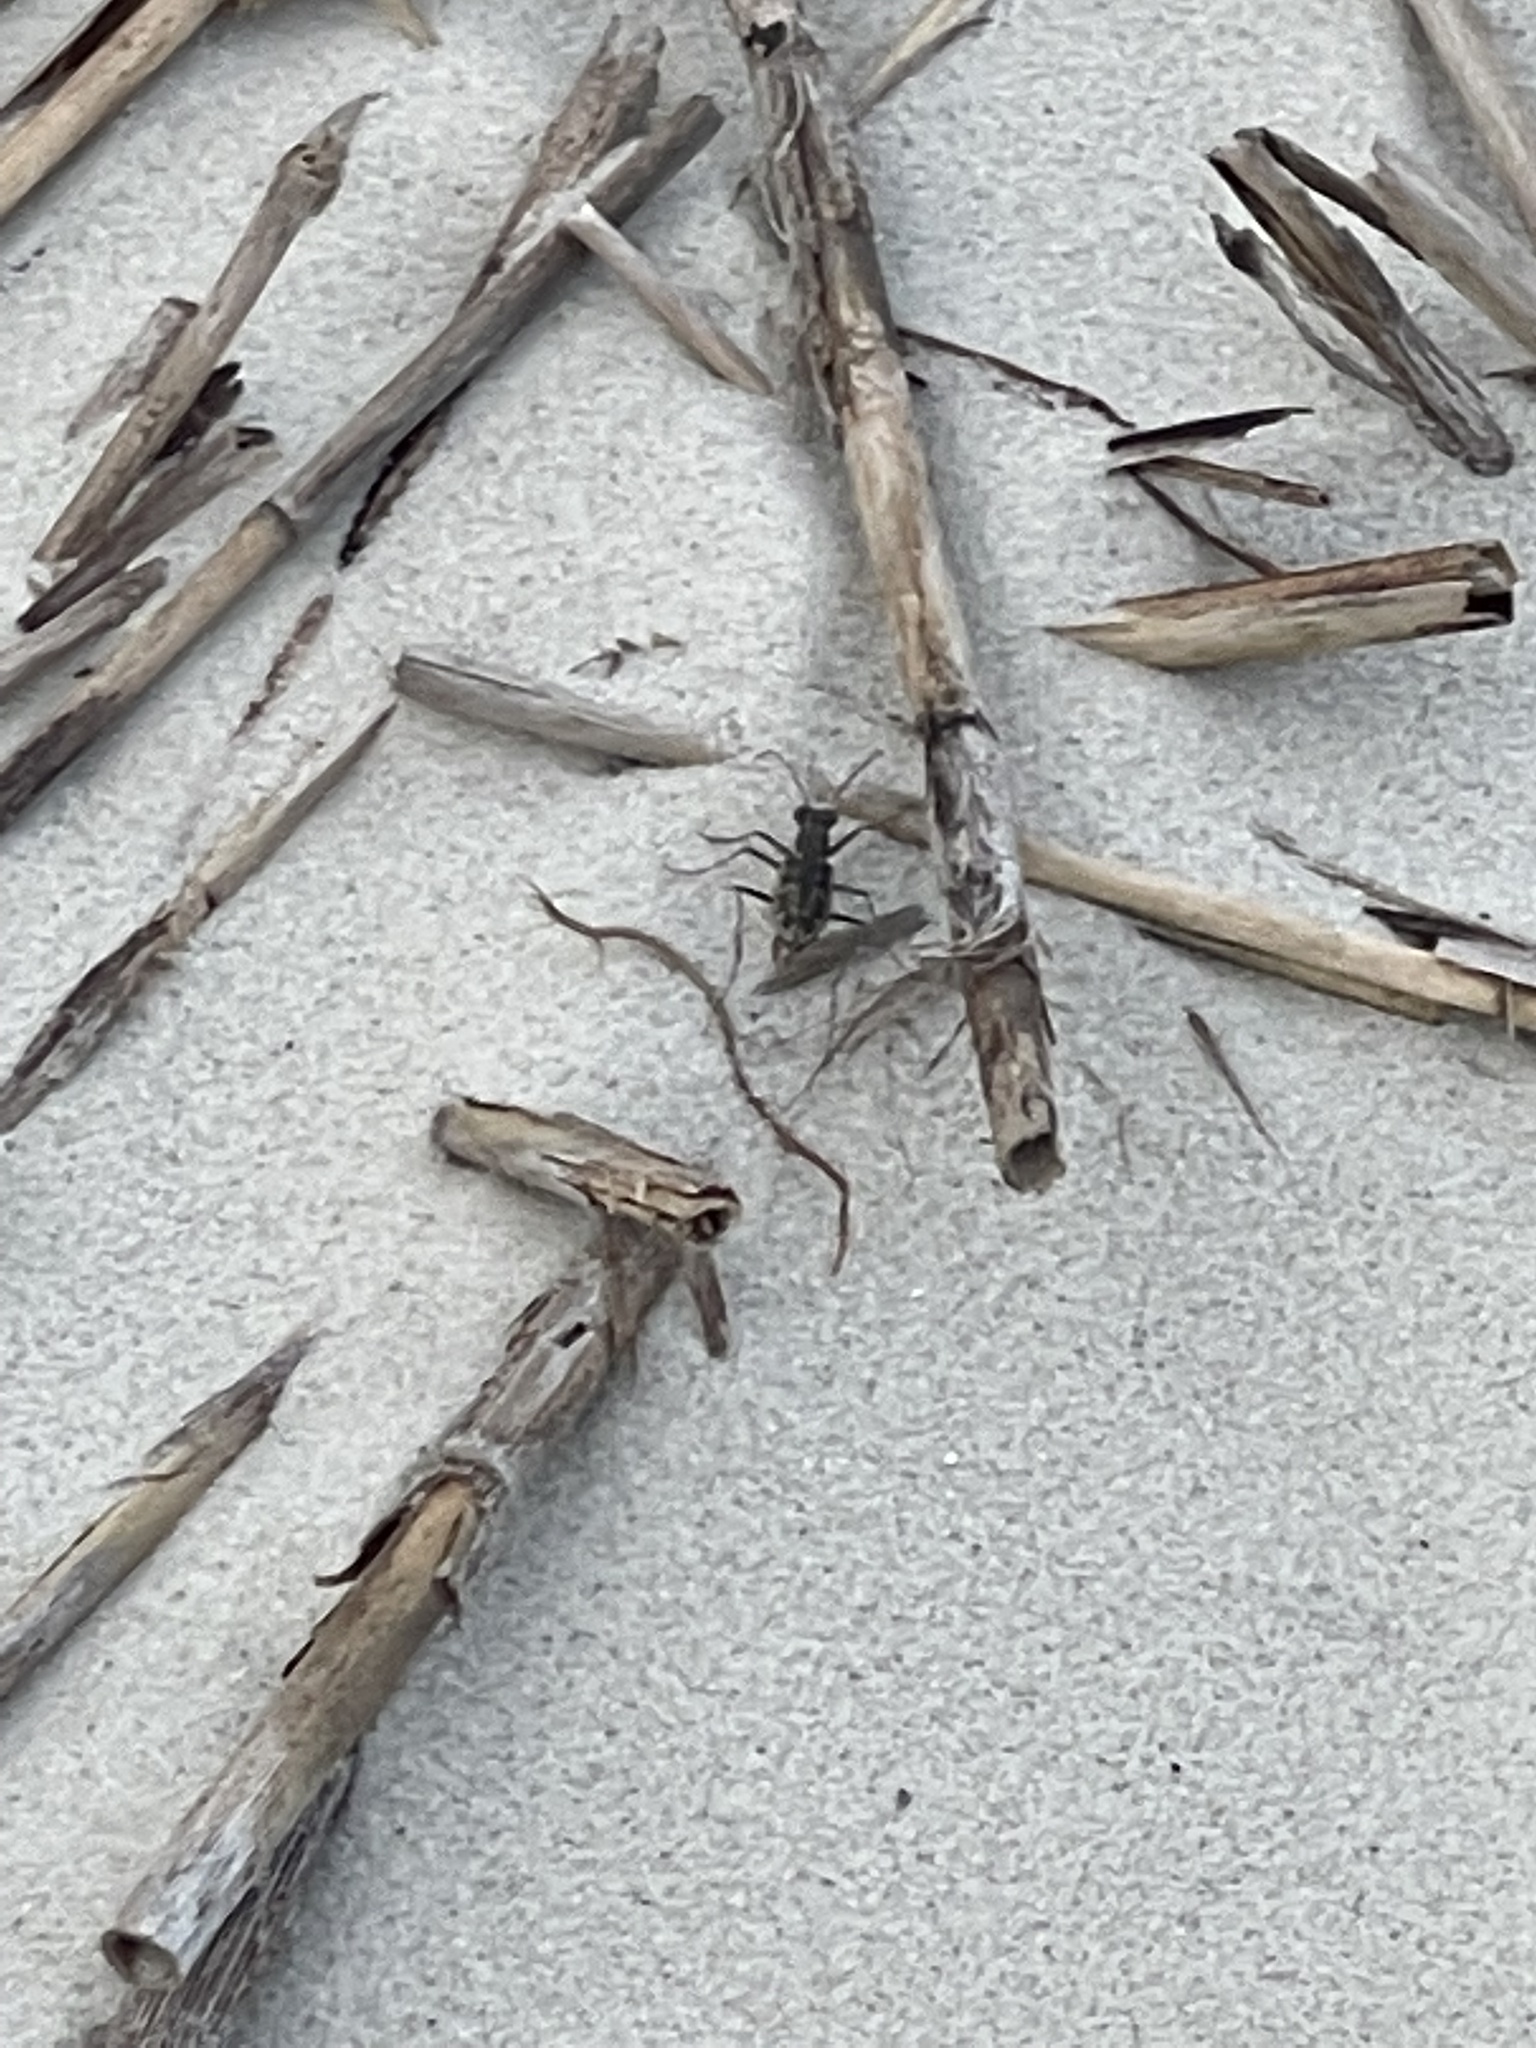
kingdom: Animalia
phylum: Arthropoda
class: Insecta
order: Coleoptera
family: Carabidae
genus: Ellipsoptera
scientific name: Ellipsoptera marginata
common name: Margined tiger beetle
